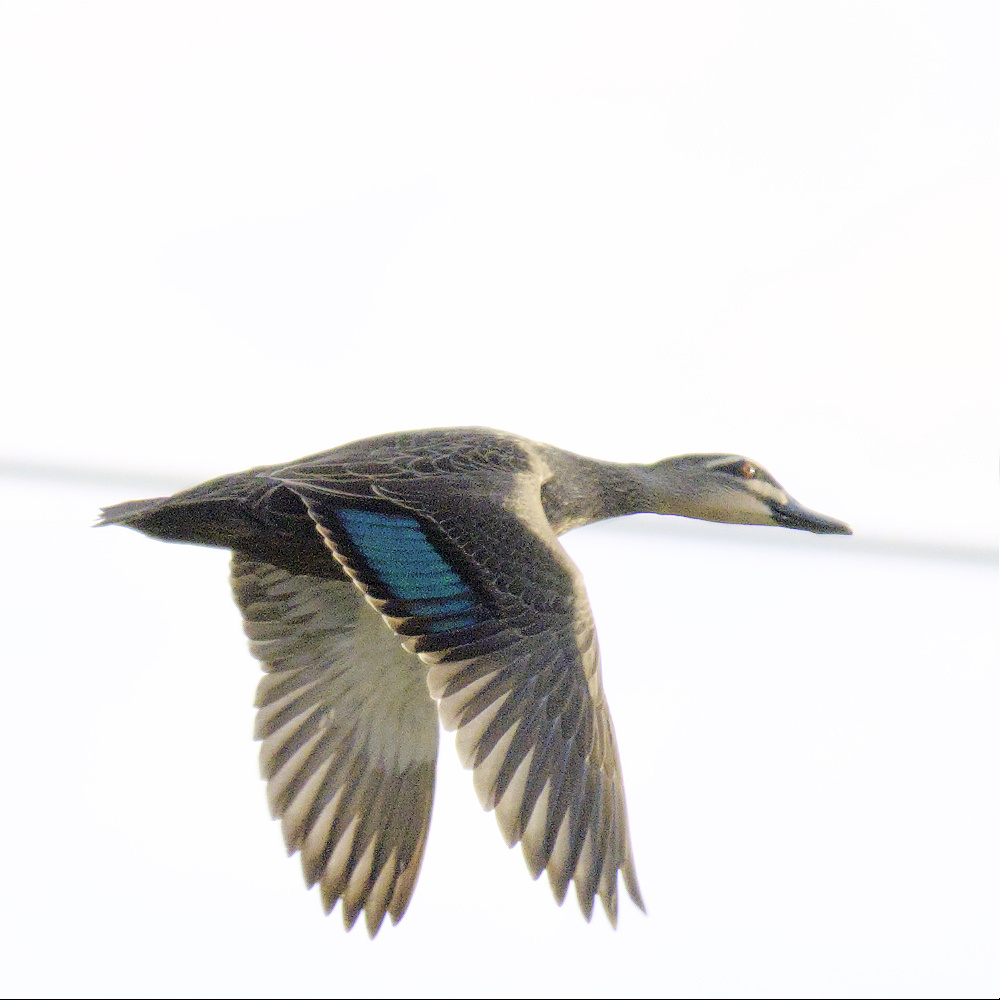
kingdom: Animalia
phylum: Chordata
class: Aves
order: Anseriformes
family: Anatidae
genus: Anas
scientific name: Anas superciliosa
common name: Pacific black duck
